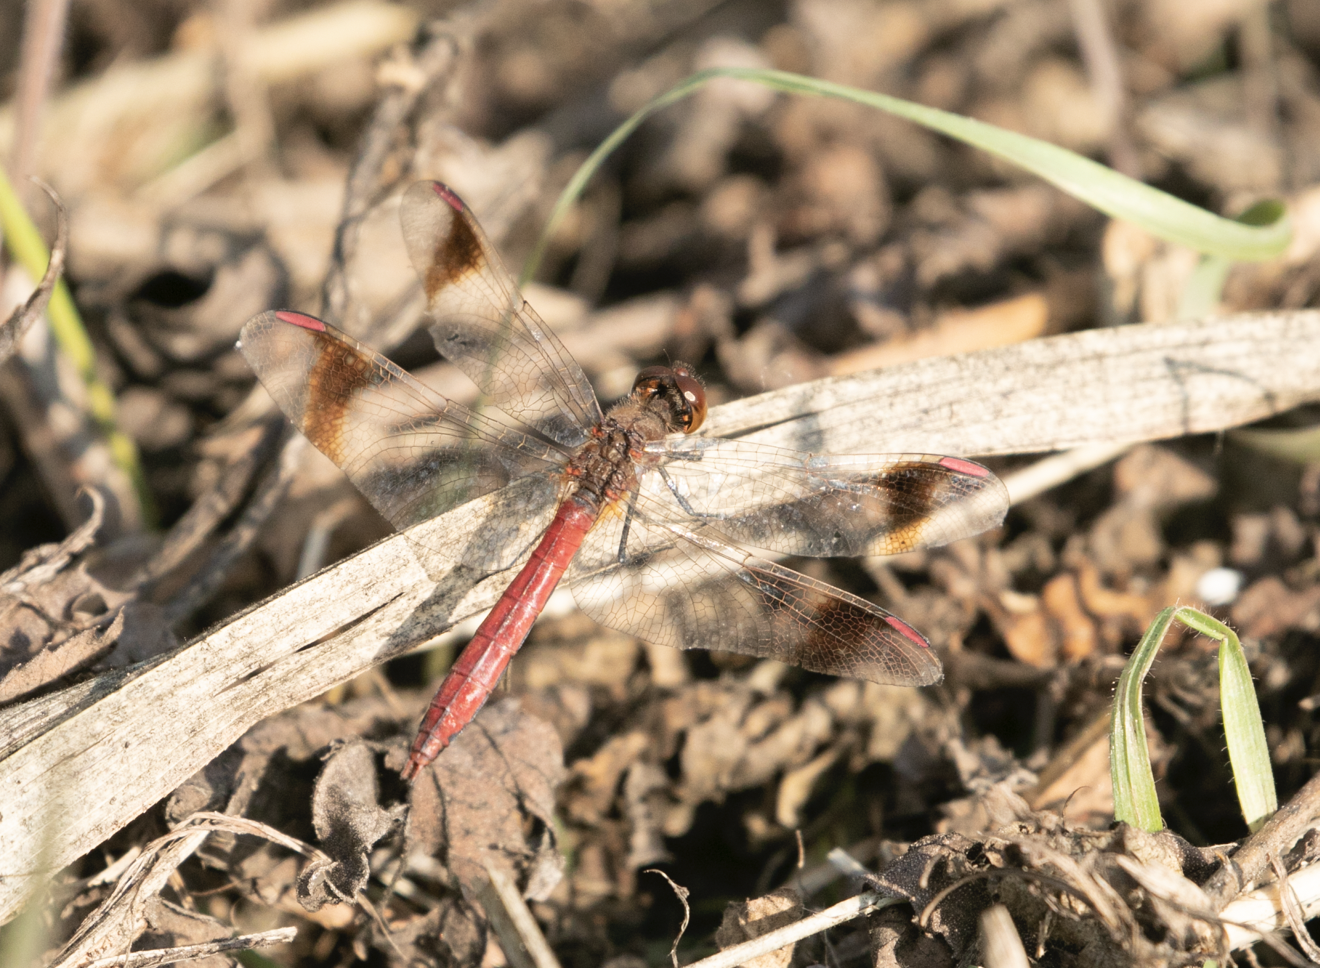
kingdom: Animalia
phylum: Arthropoda
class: Insecta
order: Odonata
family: Libellulidae
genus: Sympetrum
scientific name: Sympetrum pedemontanum
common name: Banded darter
